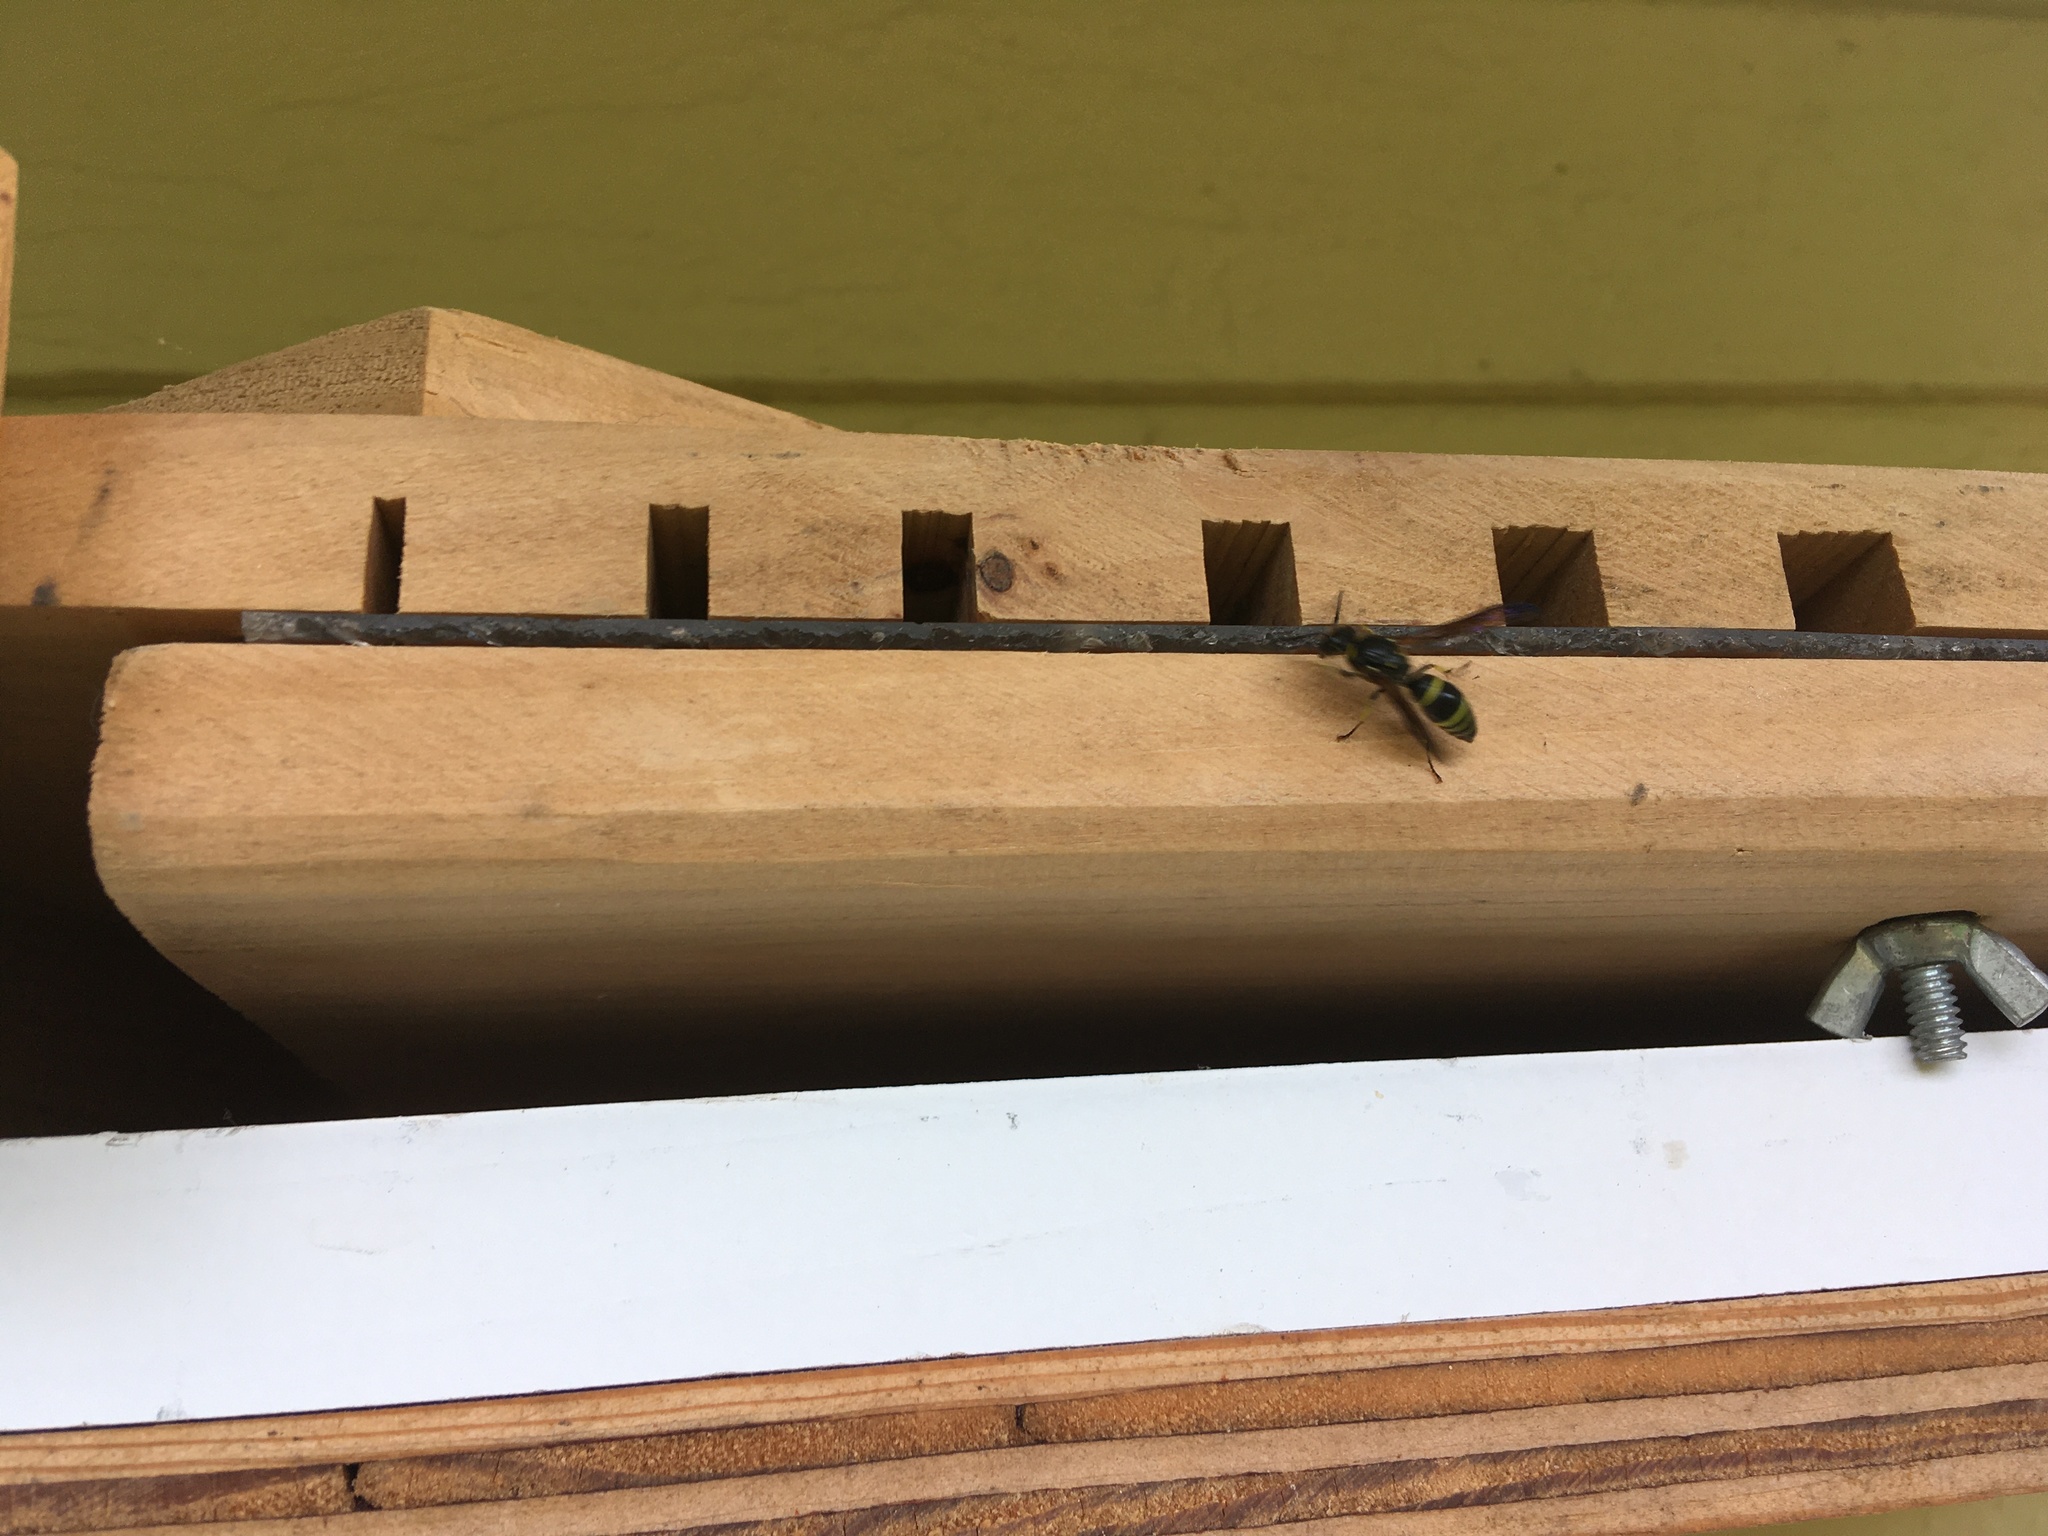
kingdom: Animalia
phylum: Arthropoda
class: Insecta
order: Hymenoptera
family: Vespidae
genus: Ancistrocerus
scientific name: Ancistrocerus
